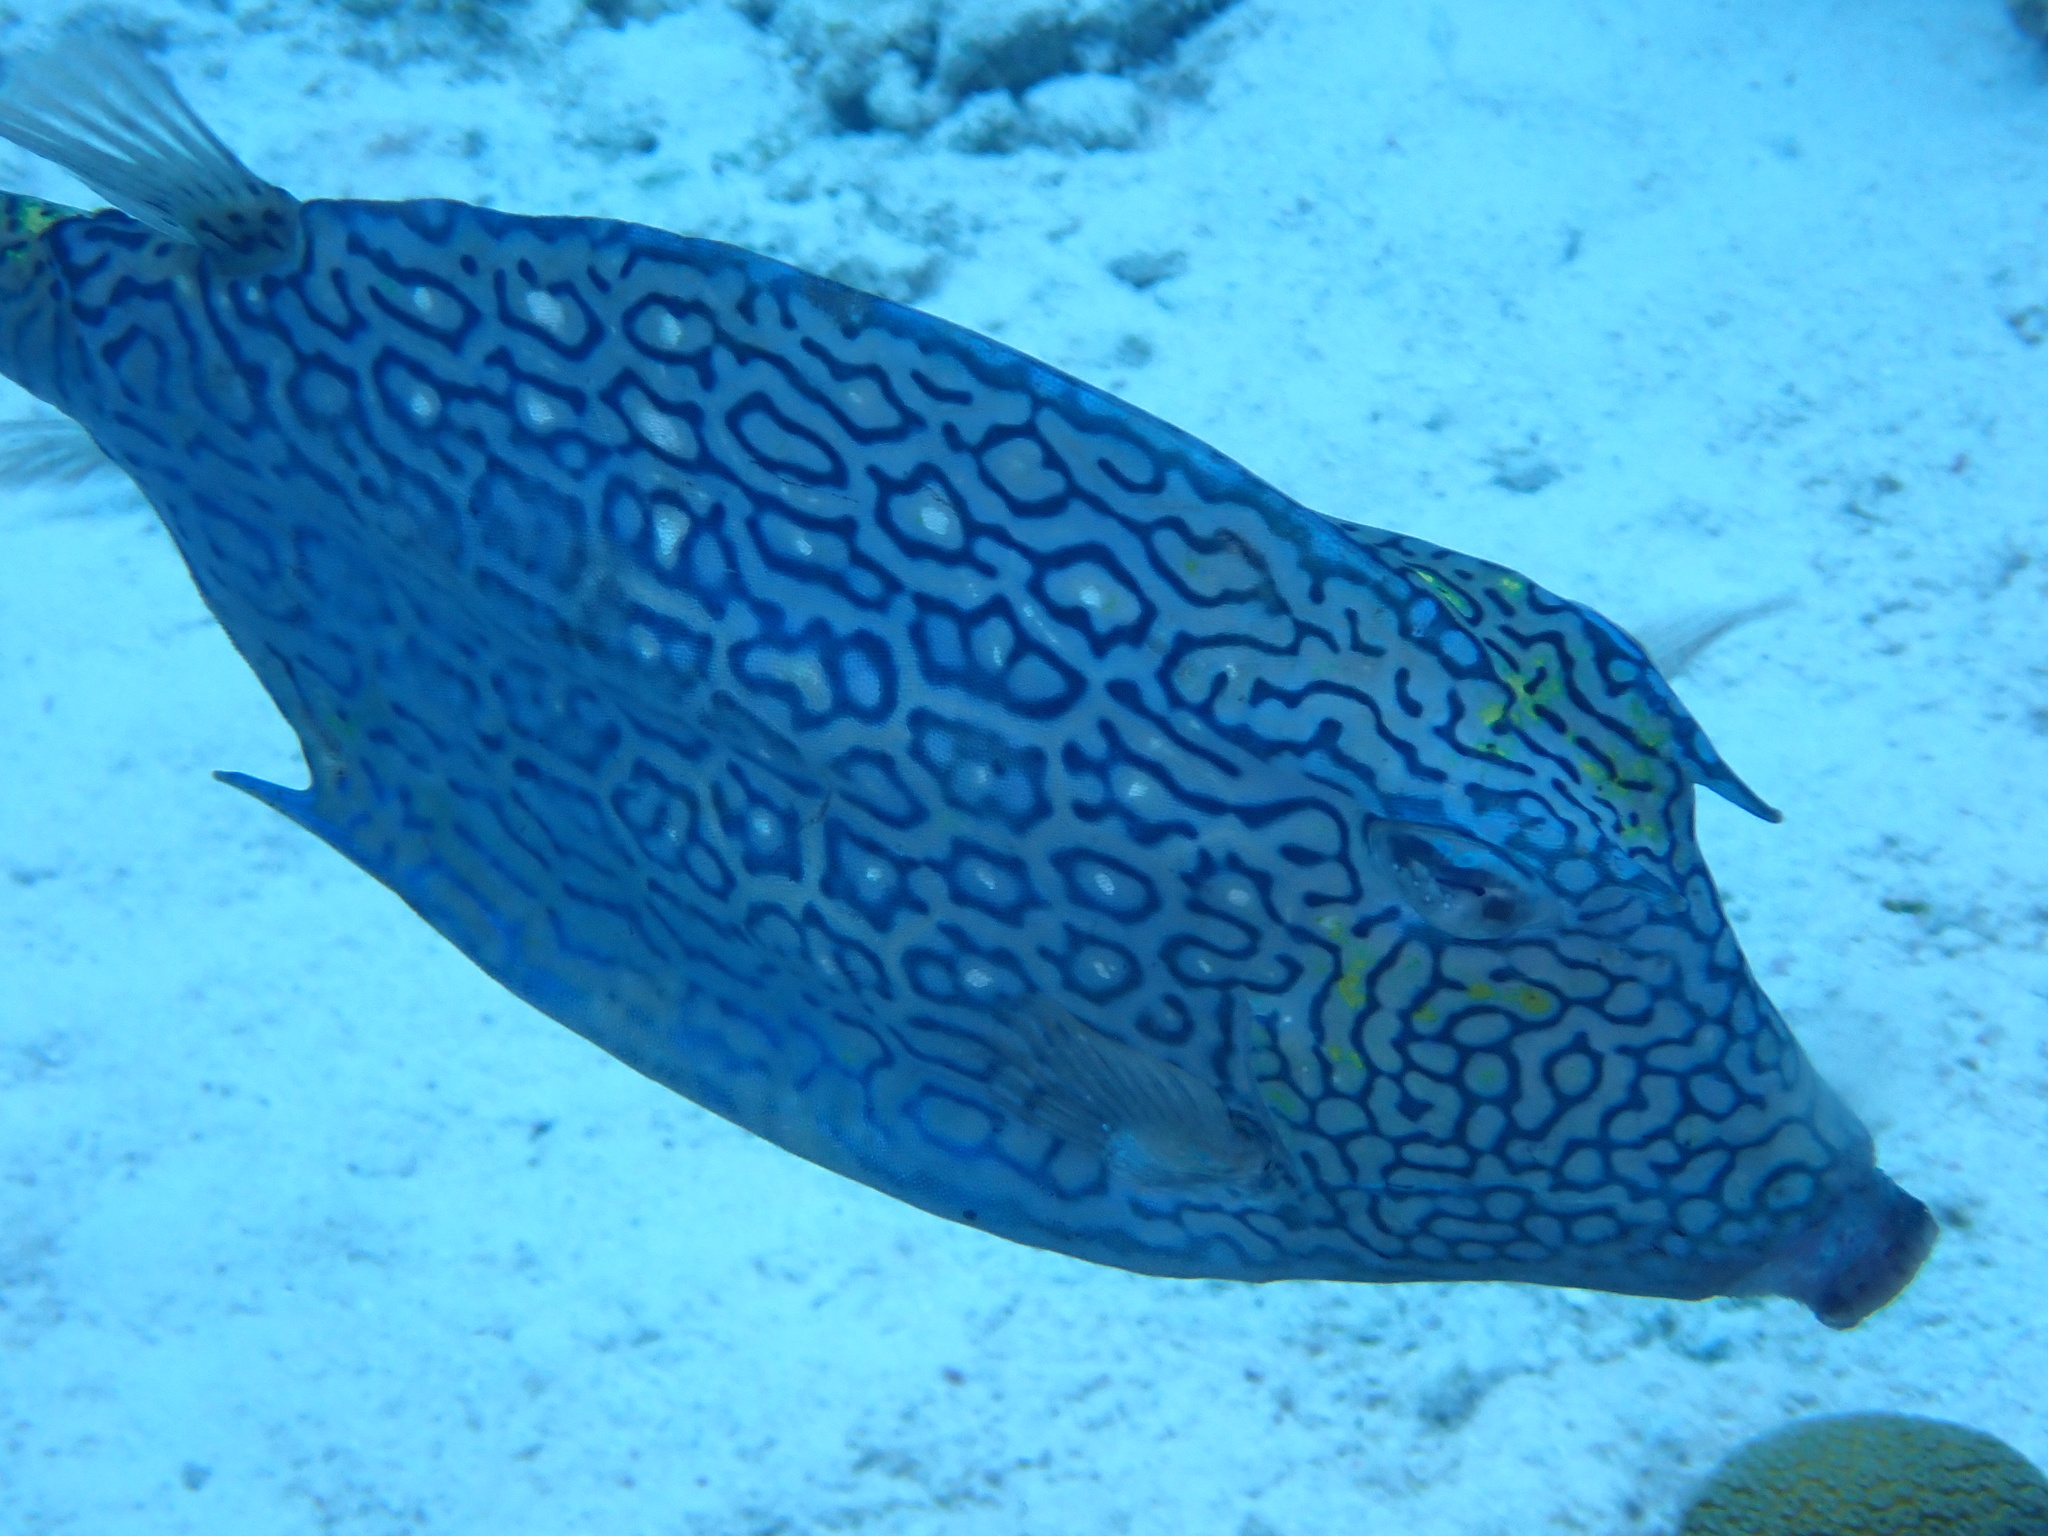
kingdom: Animalia
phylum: Chordata
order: Tetraodontiformes
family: Ostraciidae
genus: Acanthostracion
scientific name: Acanthostracion polygonius
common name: Honeycomb cowfish
